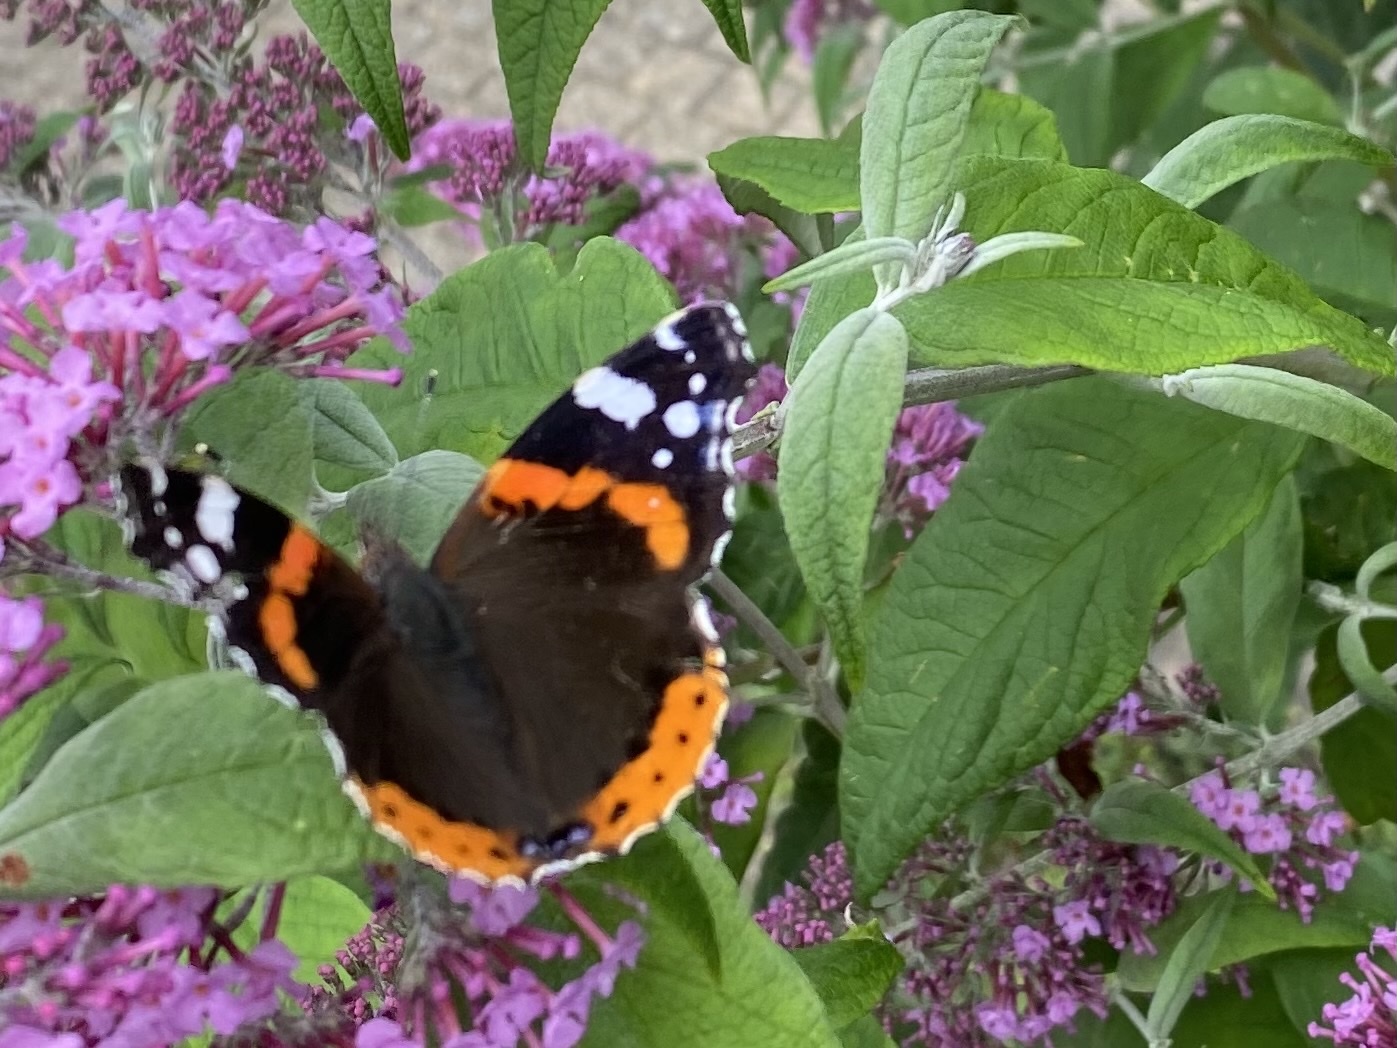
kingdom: Animalia
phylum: Arthropoda
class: Insecta
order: Lepidoptera
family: Nymphalidae
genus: Vanessa
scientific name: Vanessa atalanta
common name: Red admiral
